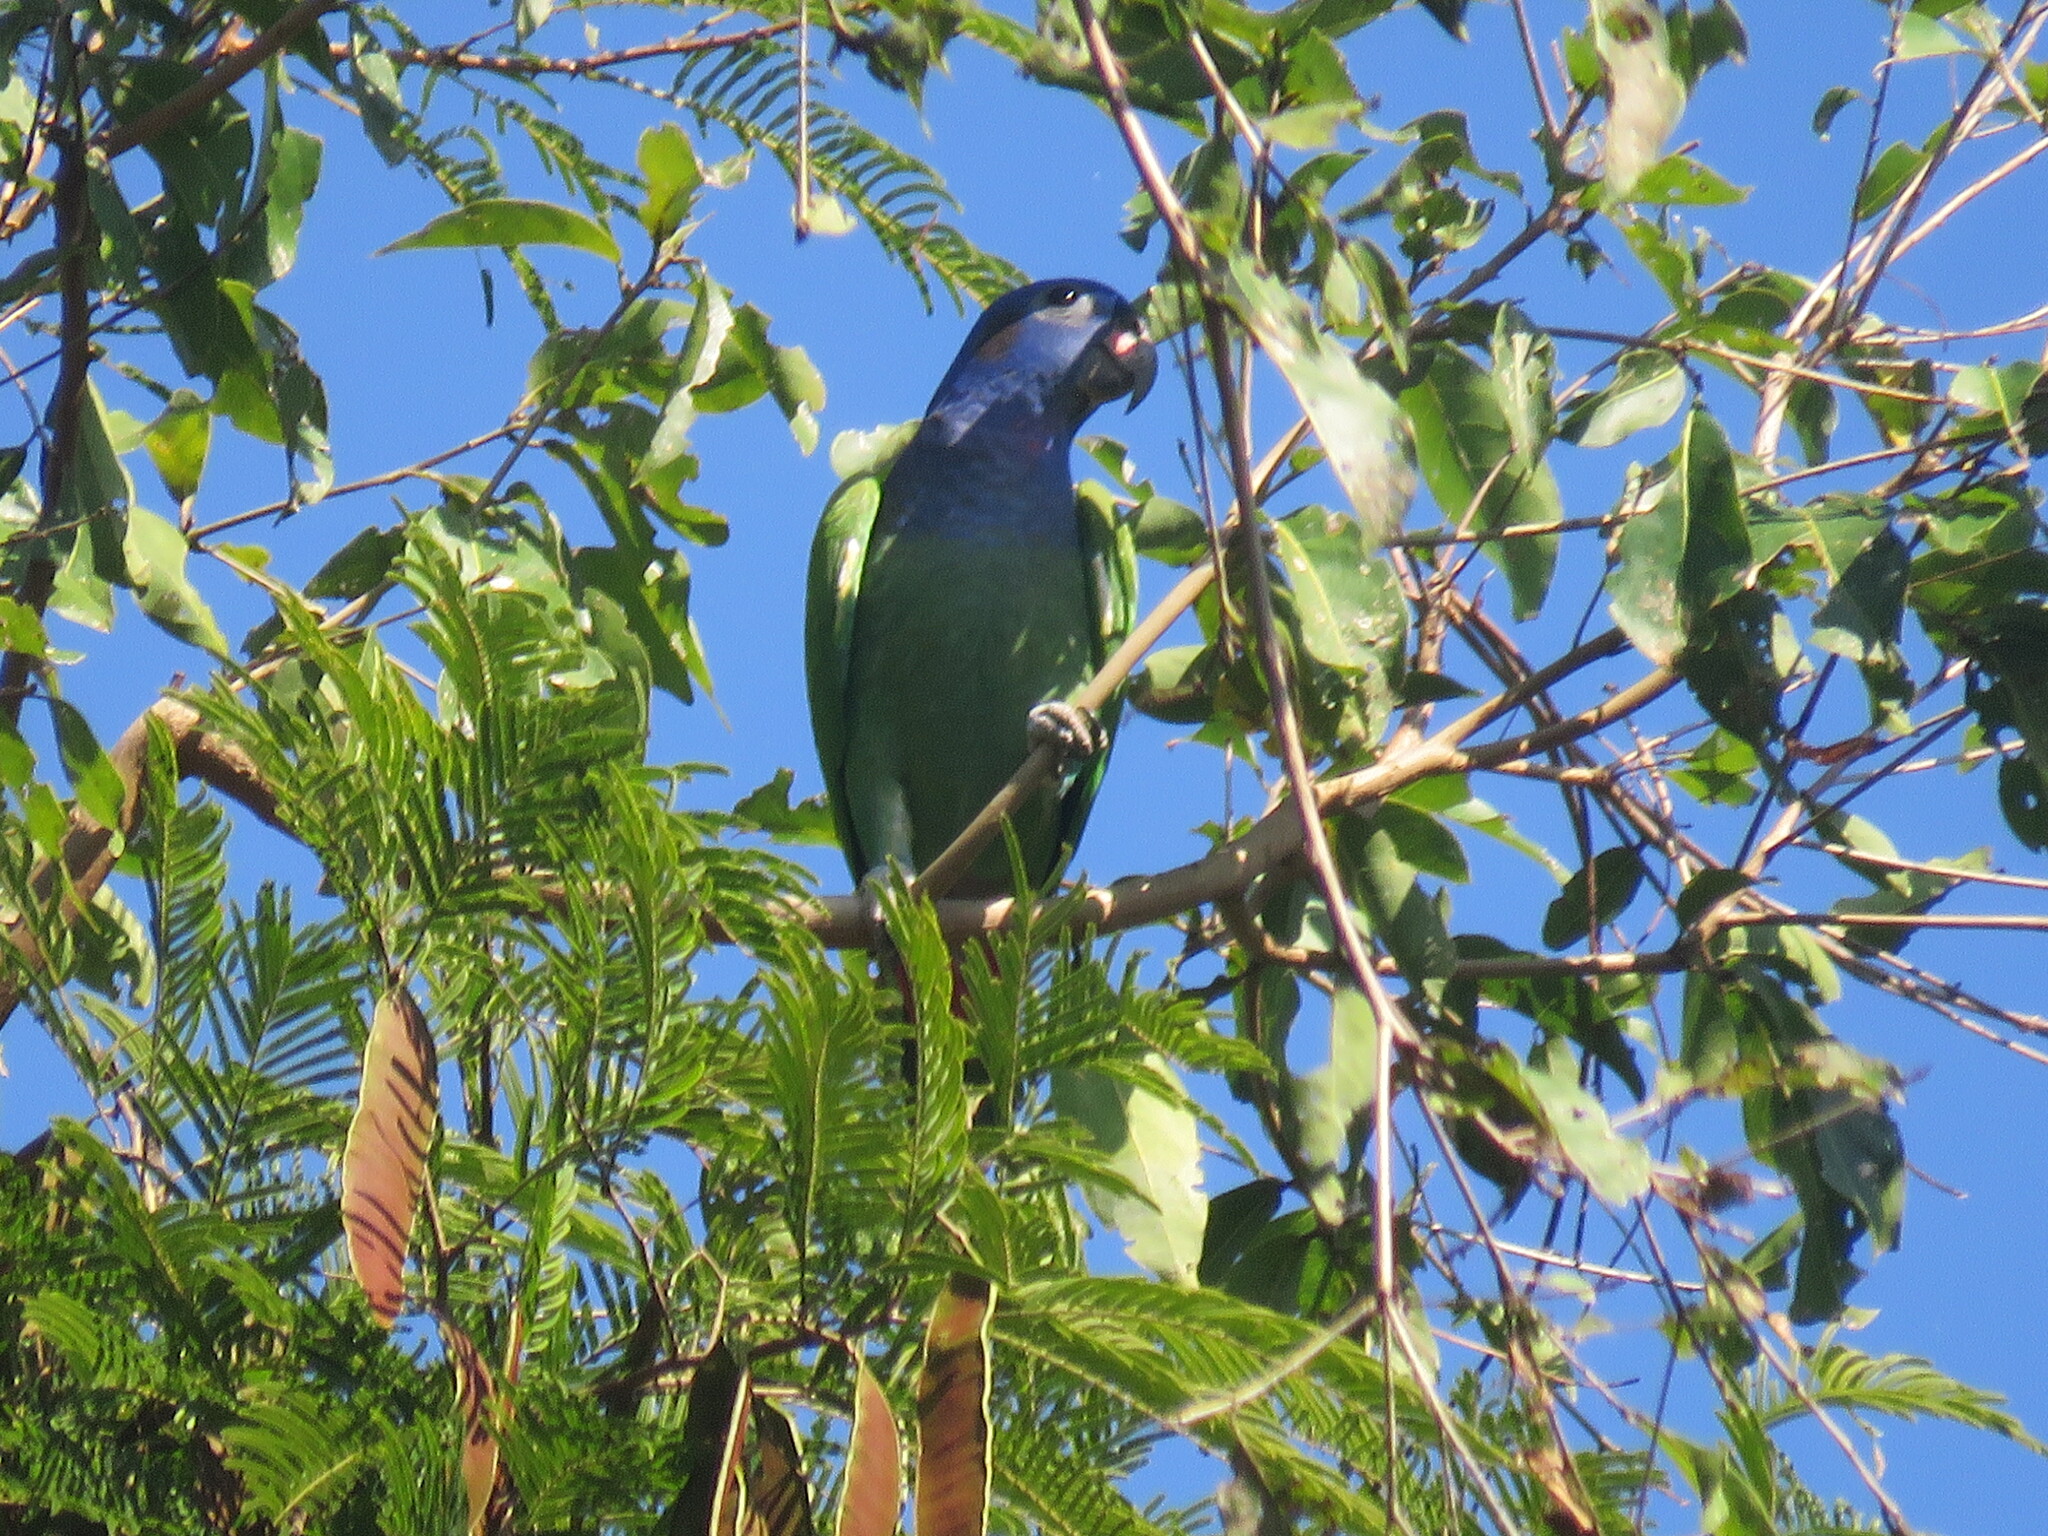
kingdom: Animalia
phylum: Chordata
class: Aves
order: Psittaciformes
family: Psittacidae
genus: Pionus
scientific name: Pionus menstruus
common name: Blue-headed parrot
